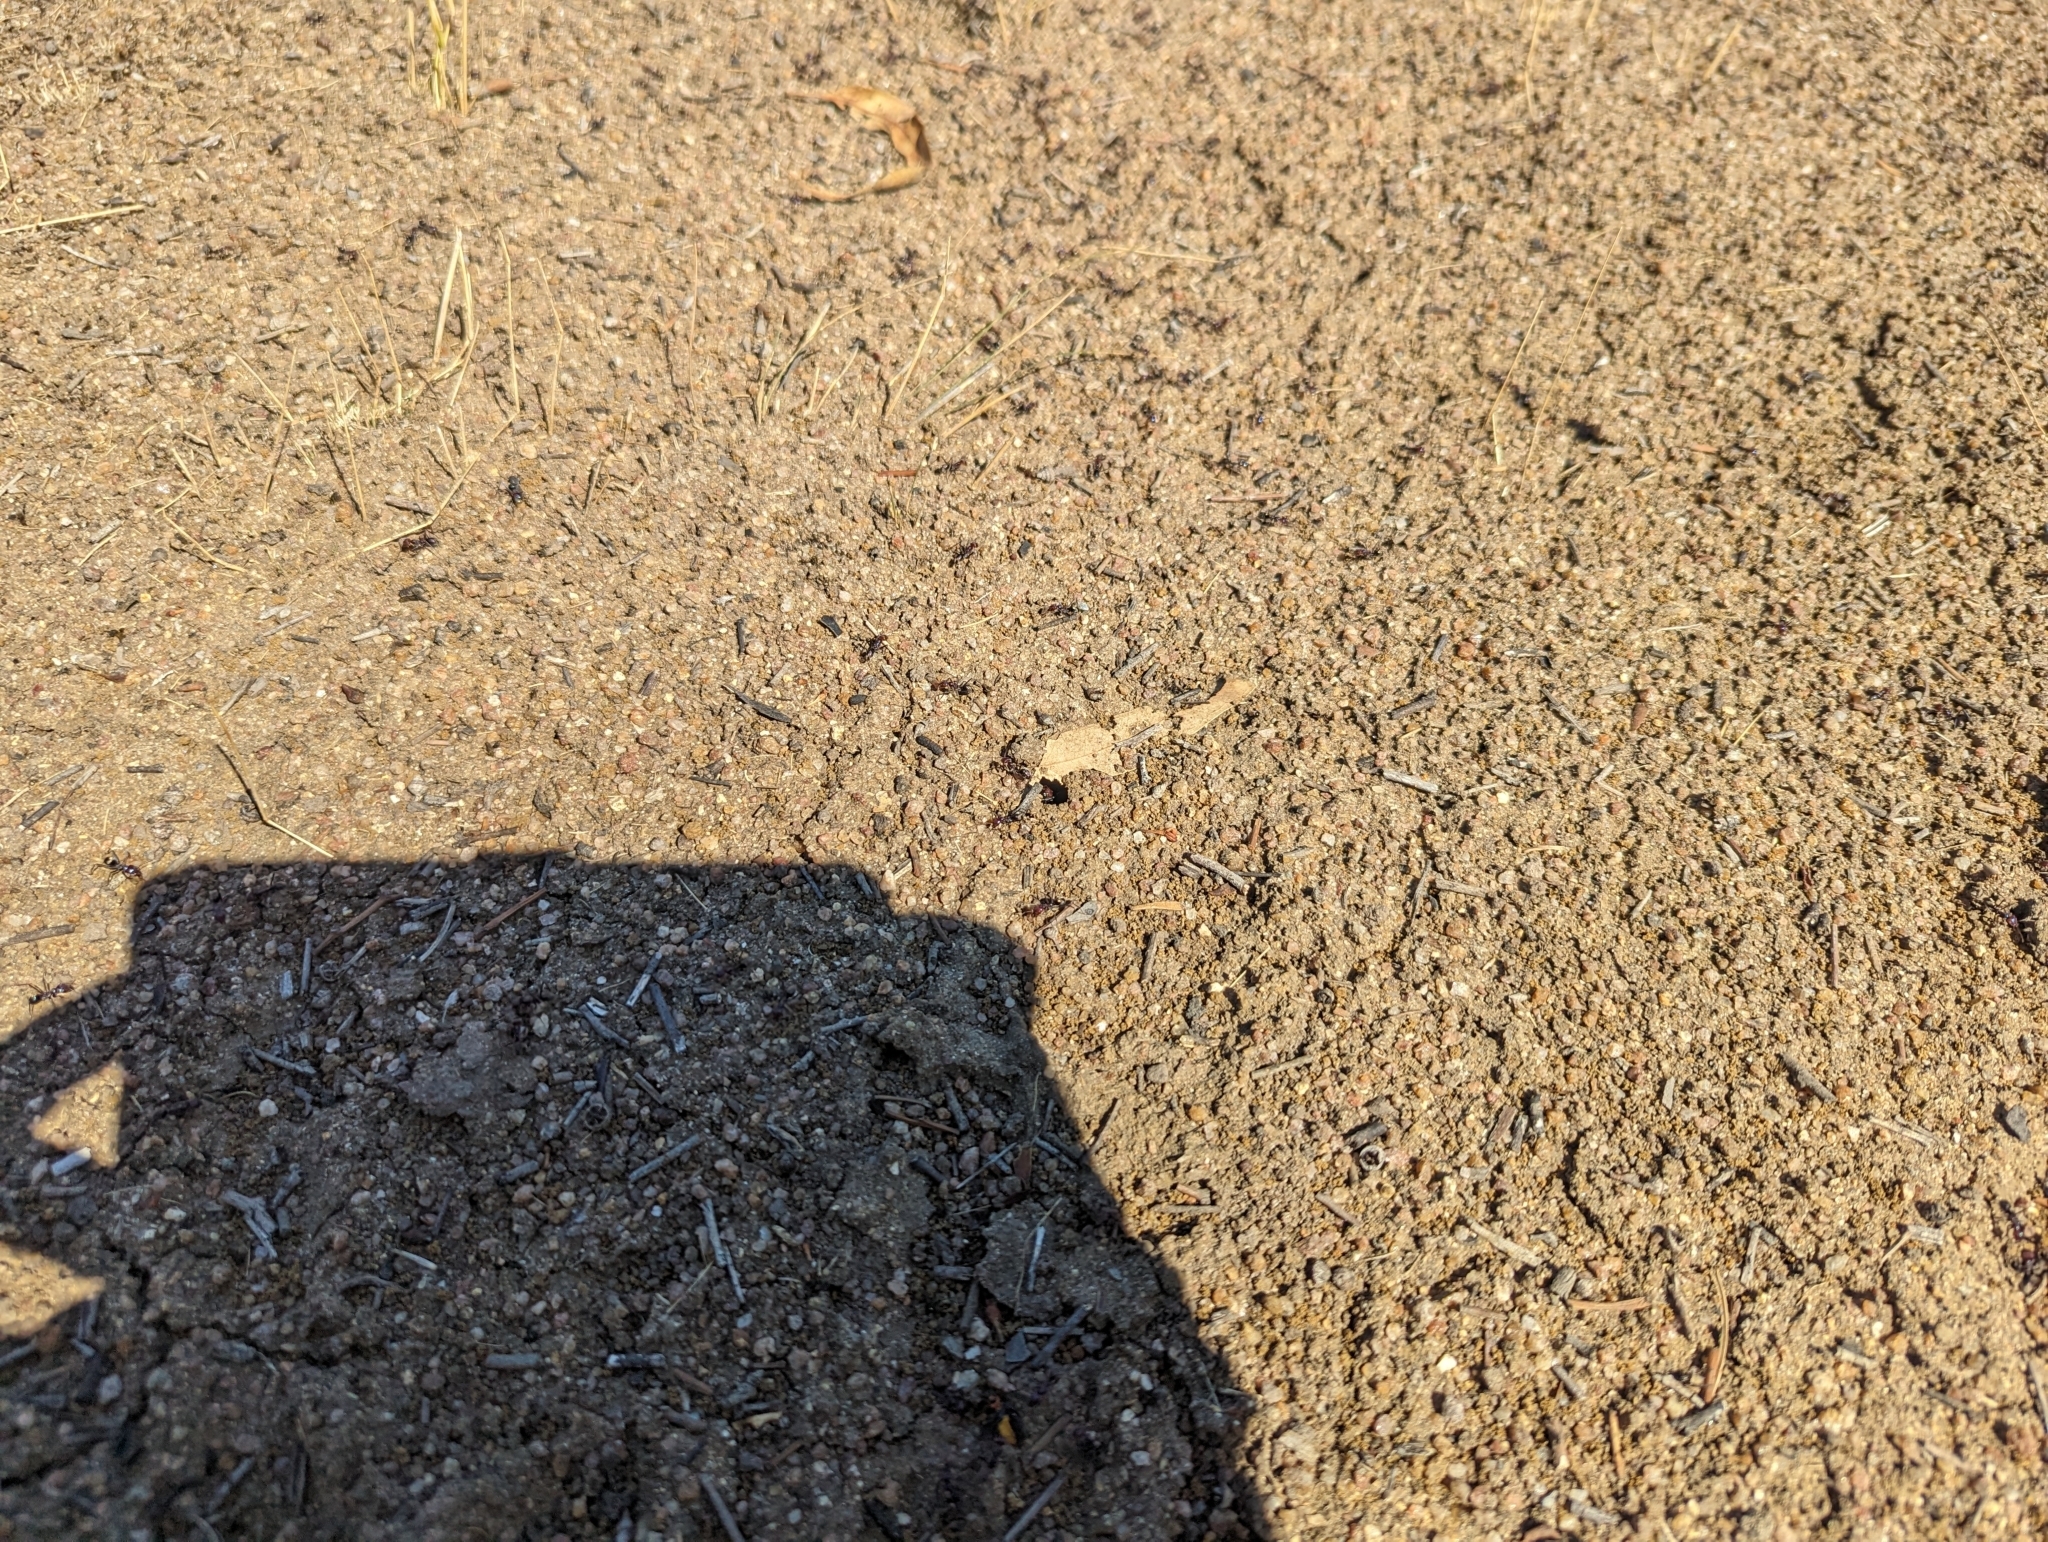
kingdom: Animalia
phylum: Arthropoda
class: Insecta
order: Hymenoptera
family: Formicidae
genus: Iridomyrmex
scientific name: Iridomyrmex purpureus
